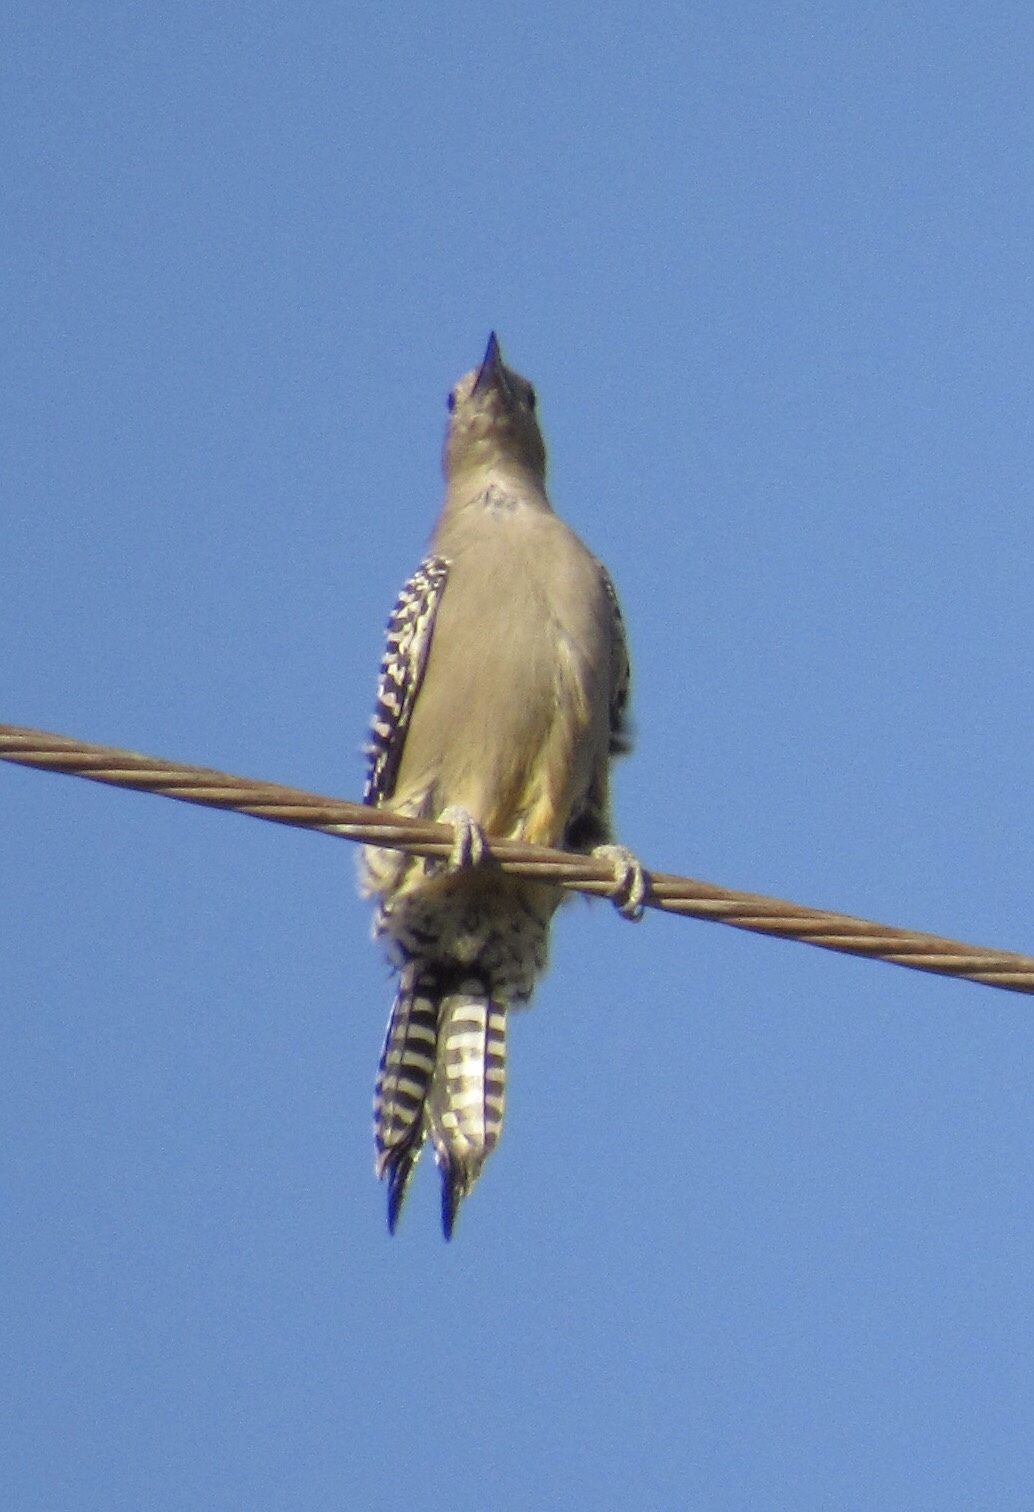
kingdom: Animalia
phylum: Chordata
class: Aves
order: Piciformes
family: Picidae
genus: Melanerpes
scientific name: Melanerpes uropygialis
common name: Gila woodpecker
